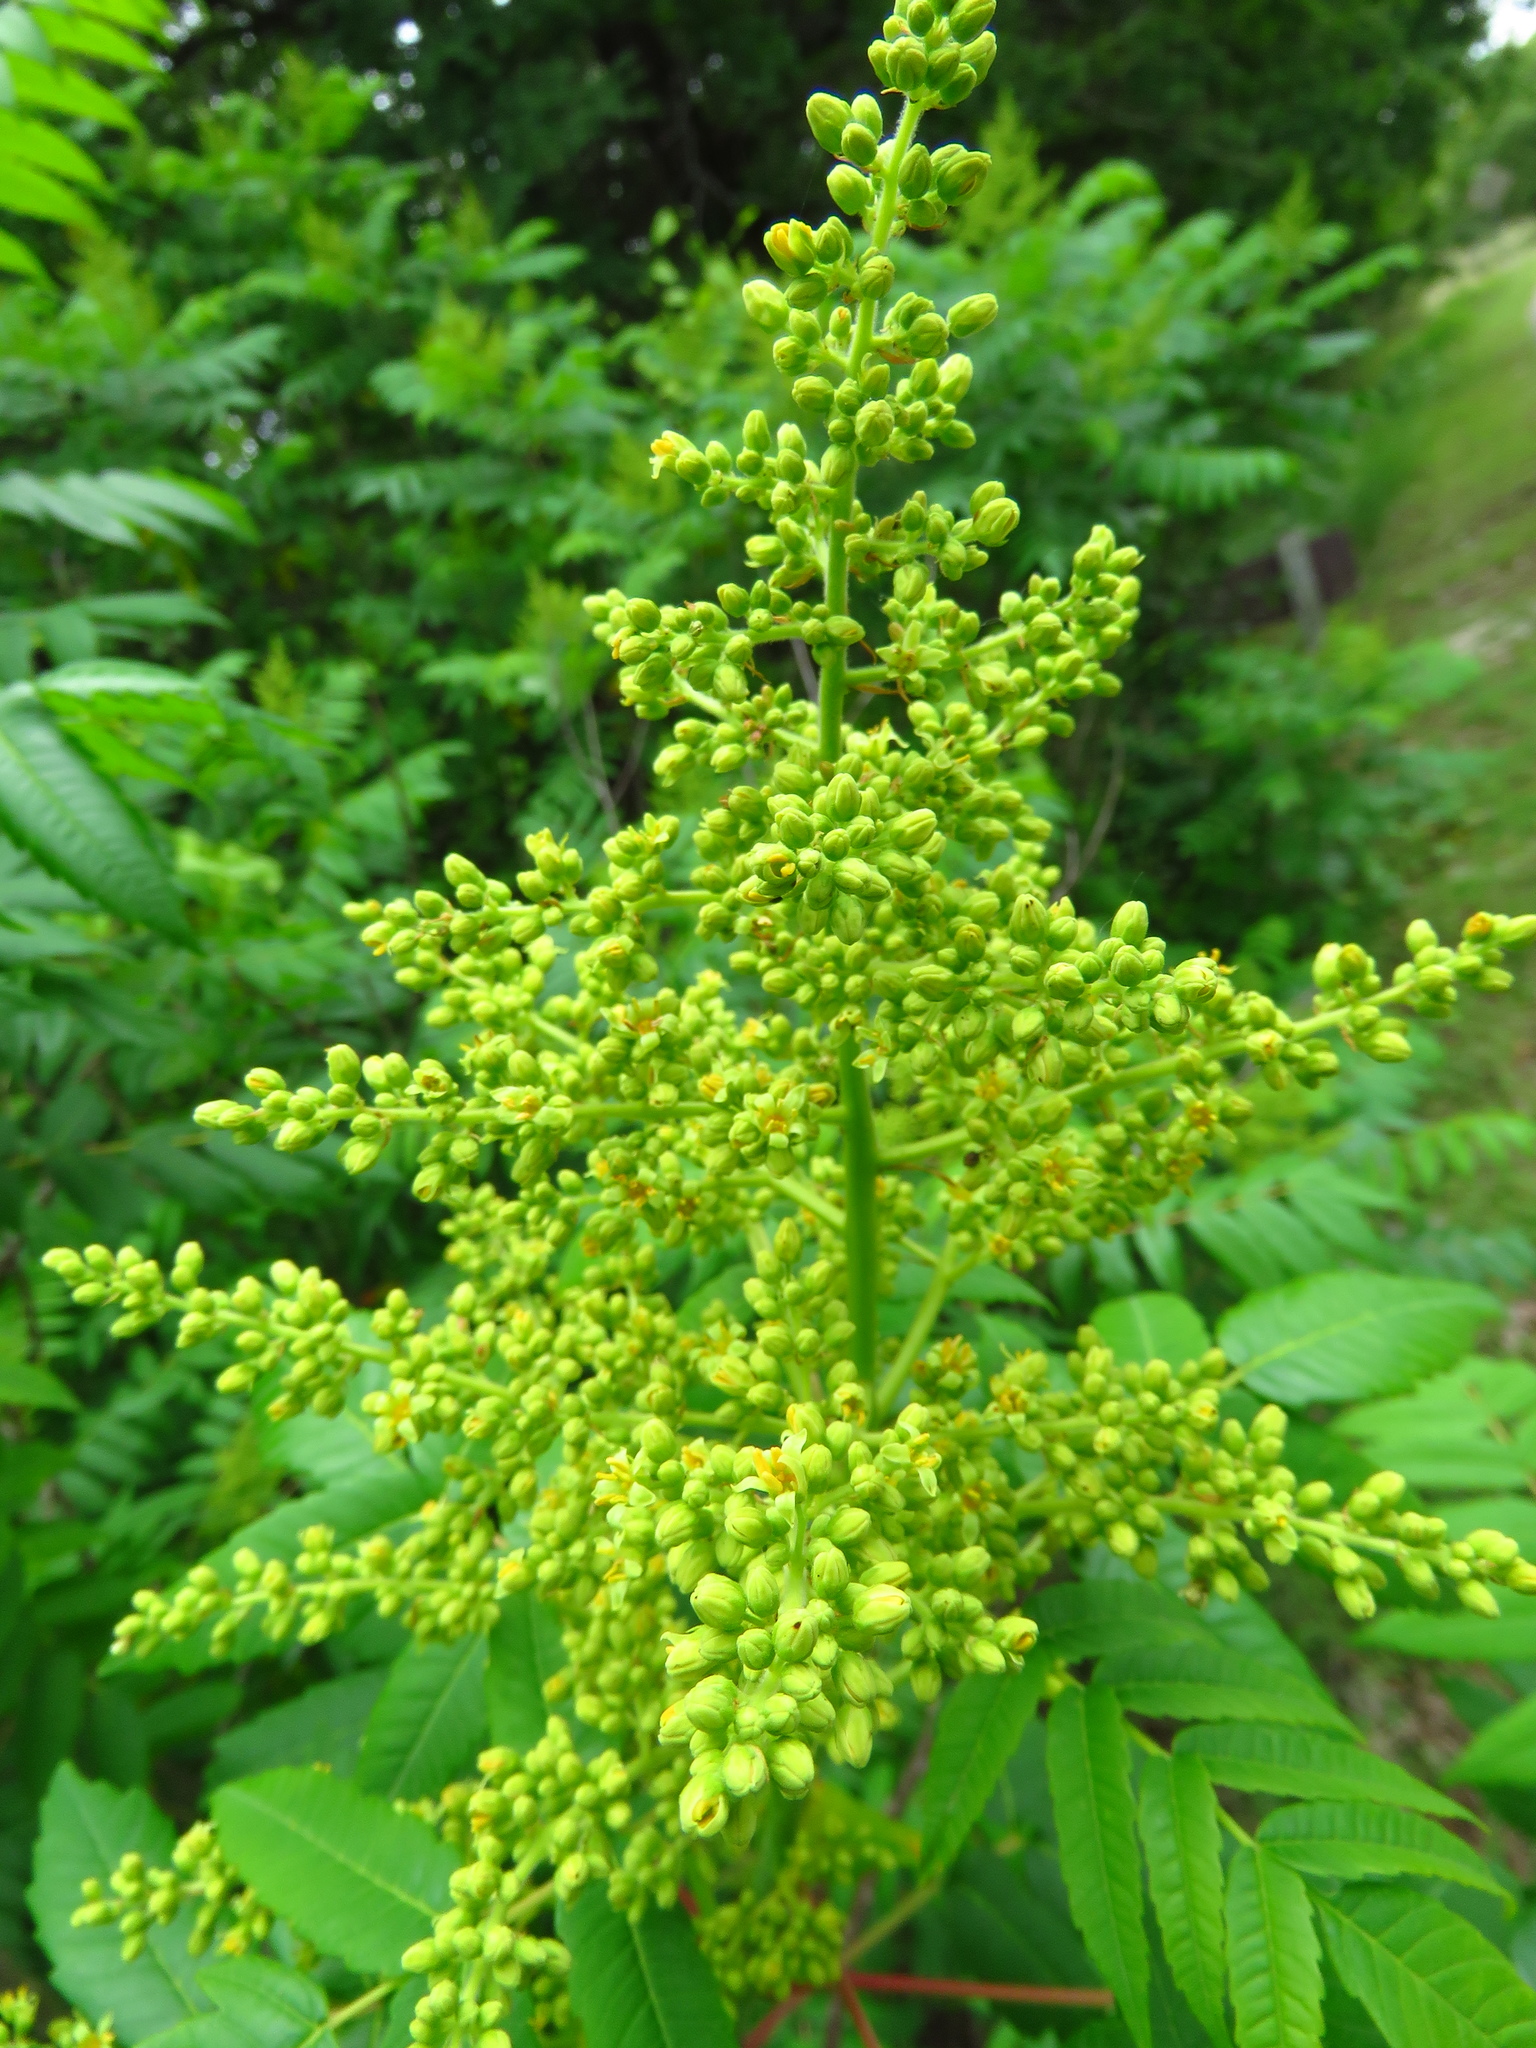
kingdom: Plantae
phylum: Tracheophyta
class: Magnoliopsida
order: Sapindales
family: Anacardiaceae
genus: Rhus
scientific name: Rhus glabra
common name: Scarlet sumac
